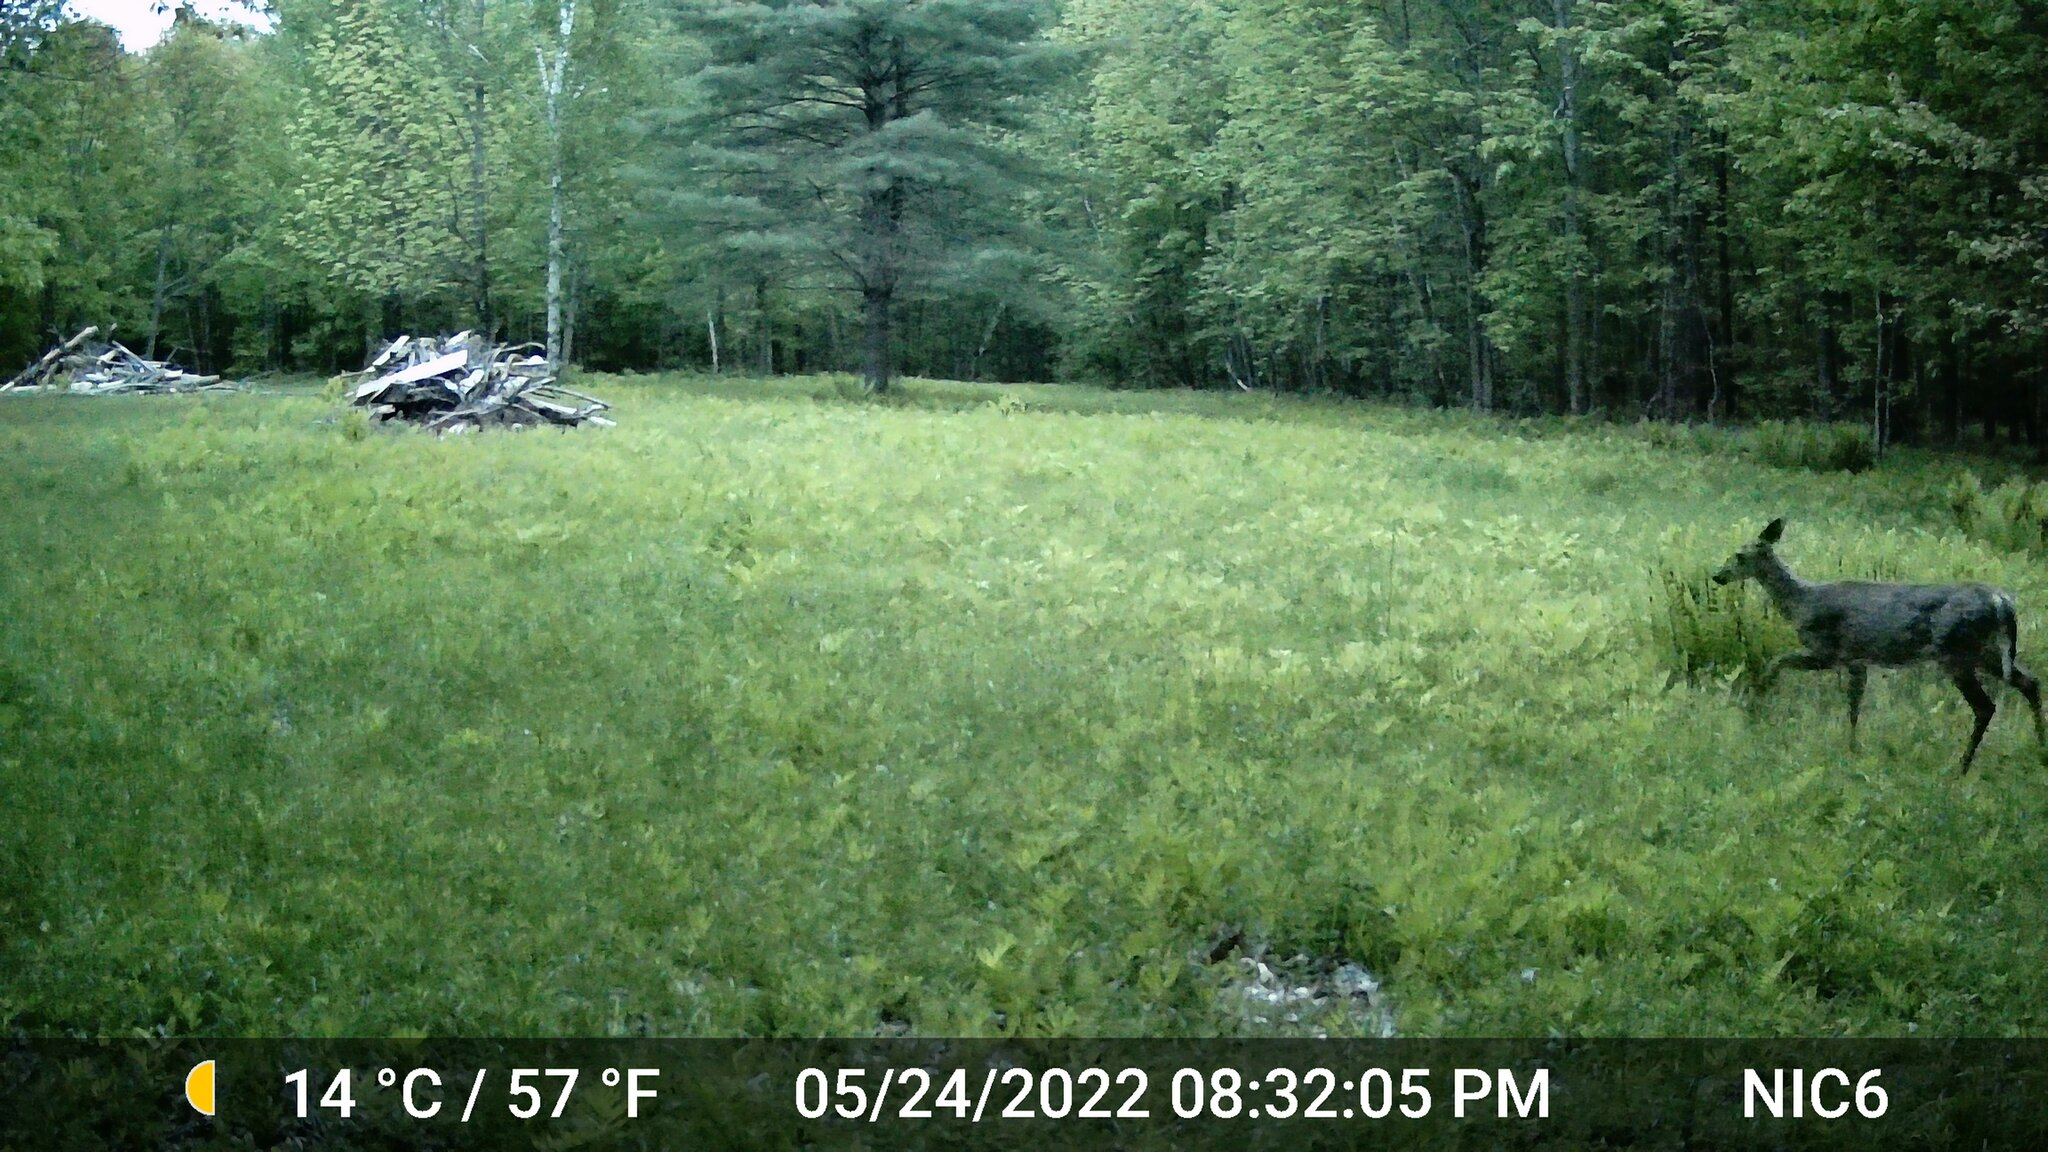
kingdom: Animalia
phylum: Chordata
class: Mammalia
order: Artiodactyla
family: Cervidae
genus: Odocoileus
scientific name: Odocoileus virginianus
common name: White-tailed deer
